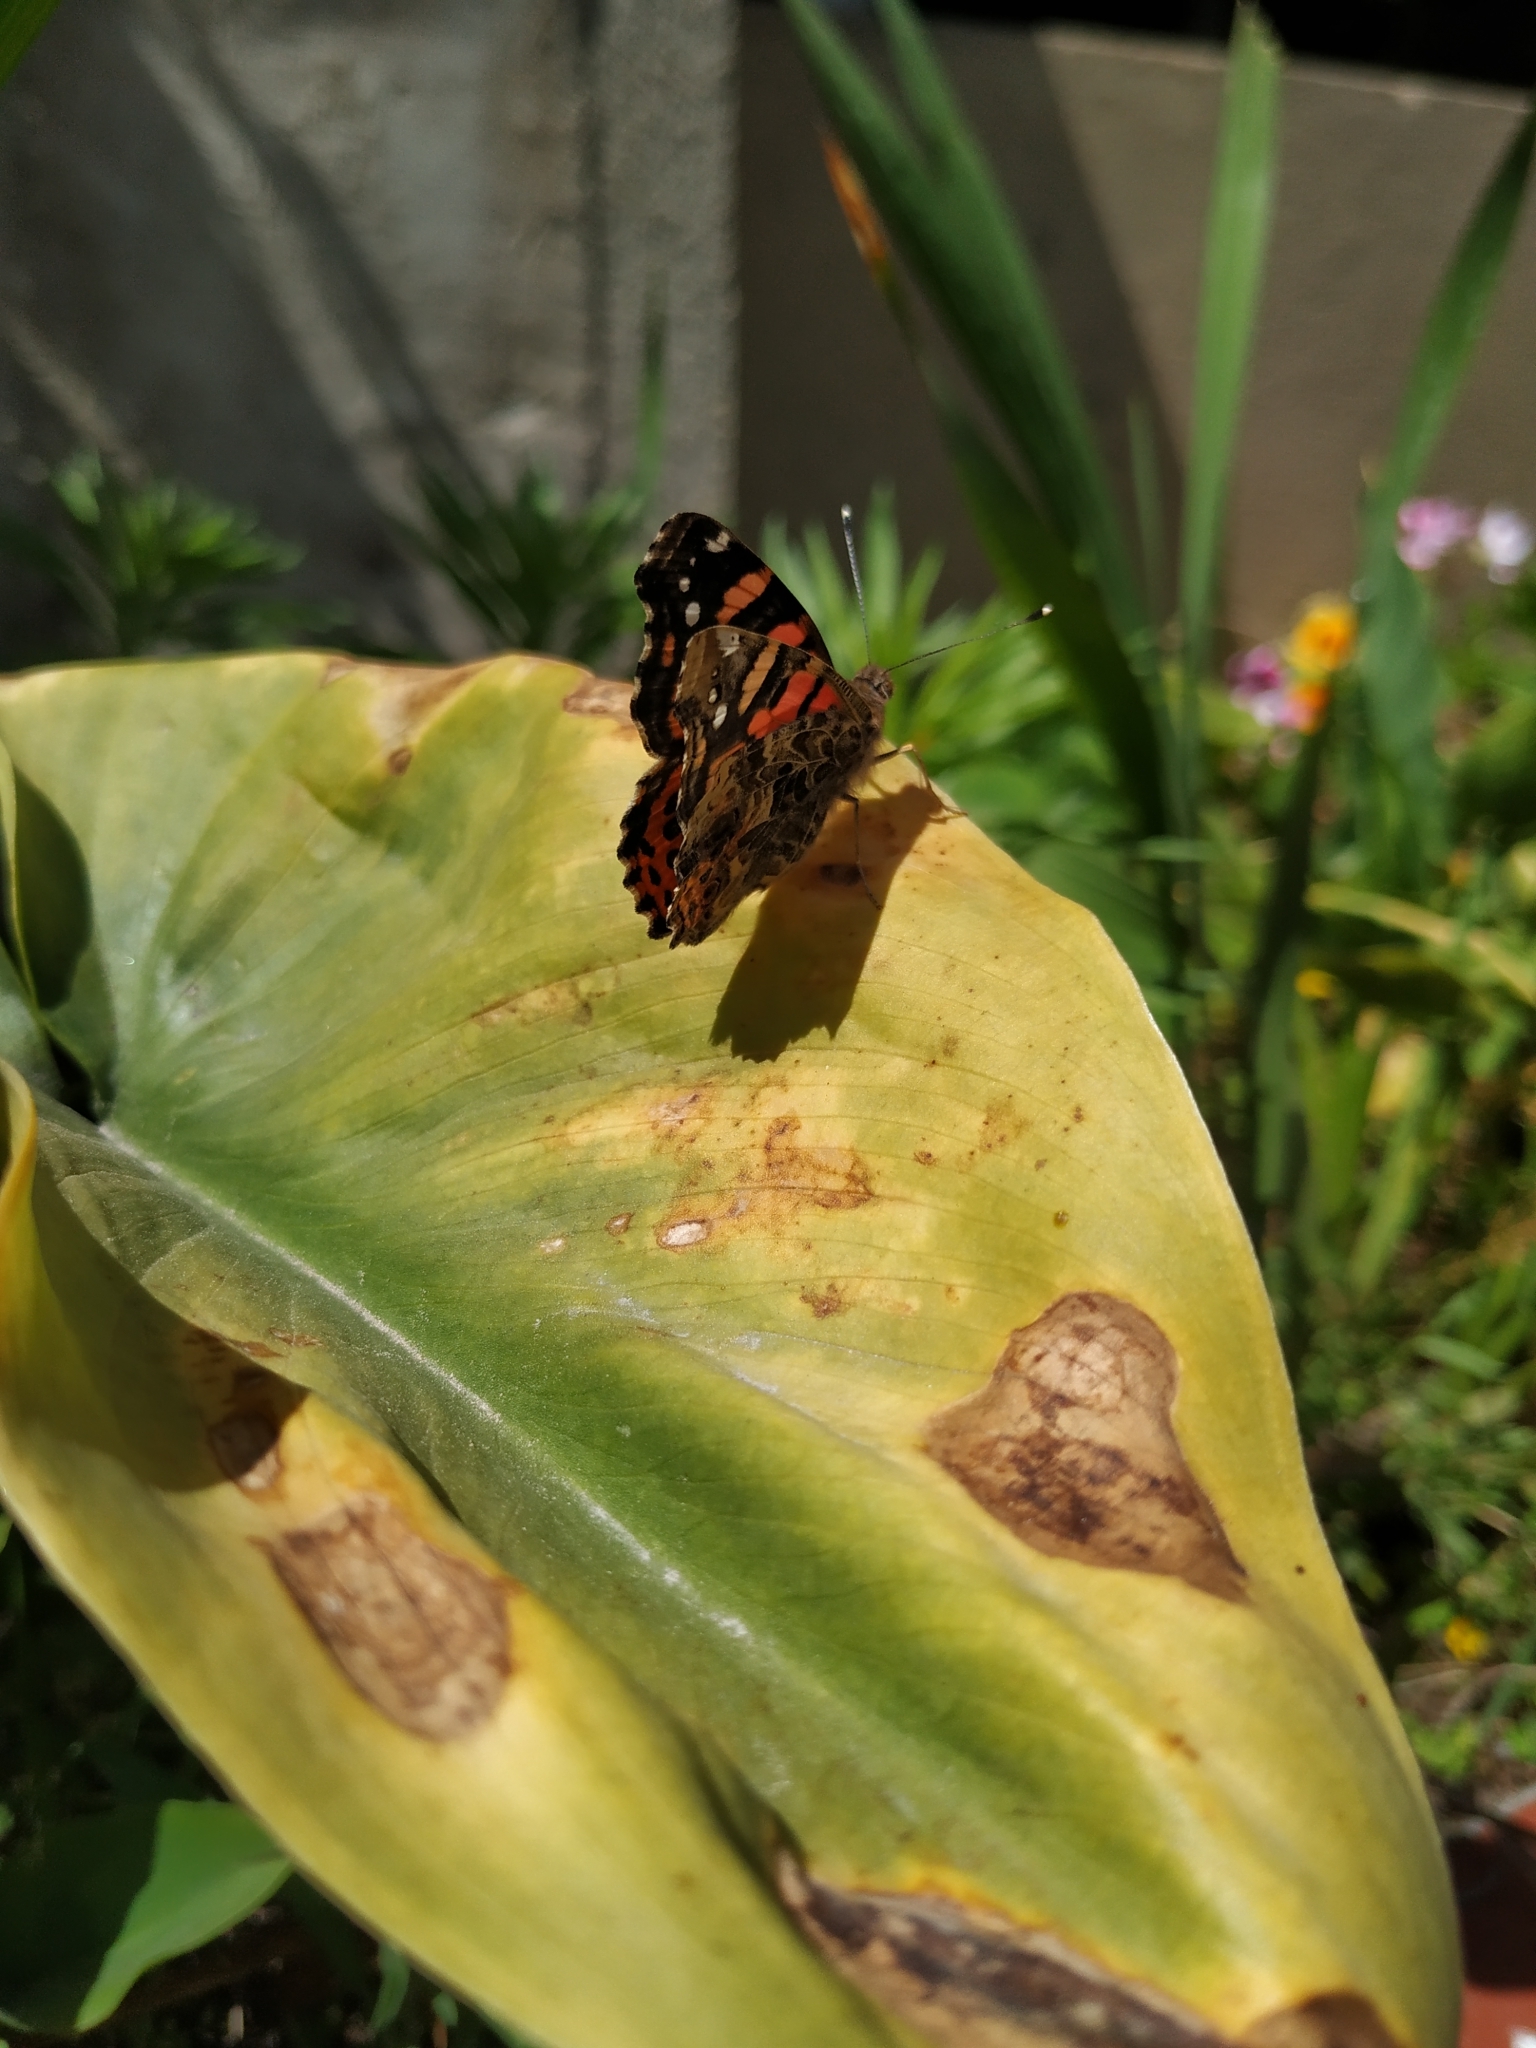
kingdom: Animalia
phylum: Arthropoda
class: Insecta
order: Lepidoptera
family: Nymphalidae
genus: Vanessa
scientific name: Vanessa carye
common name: Subtropical lady
